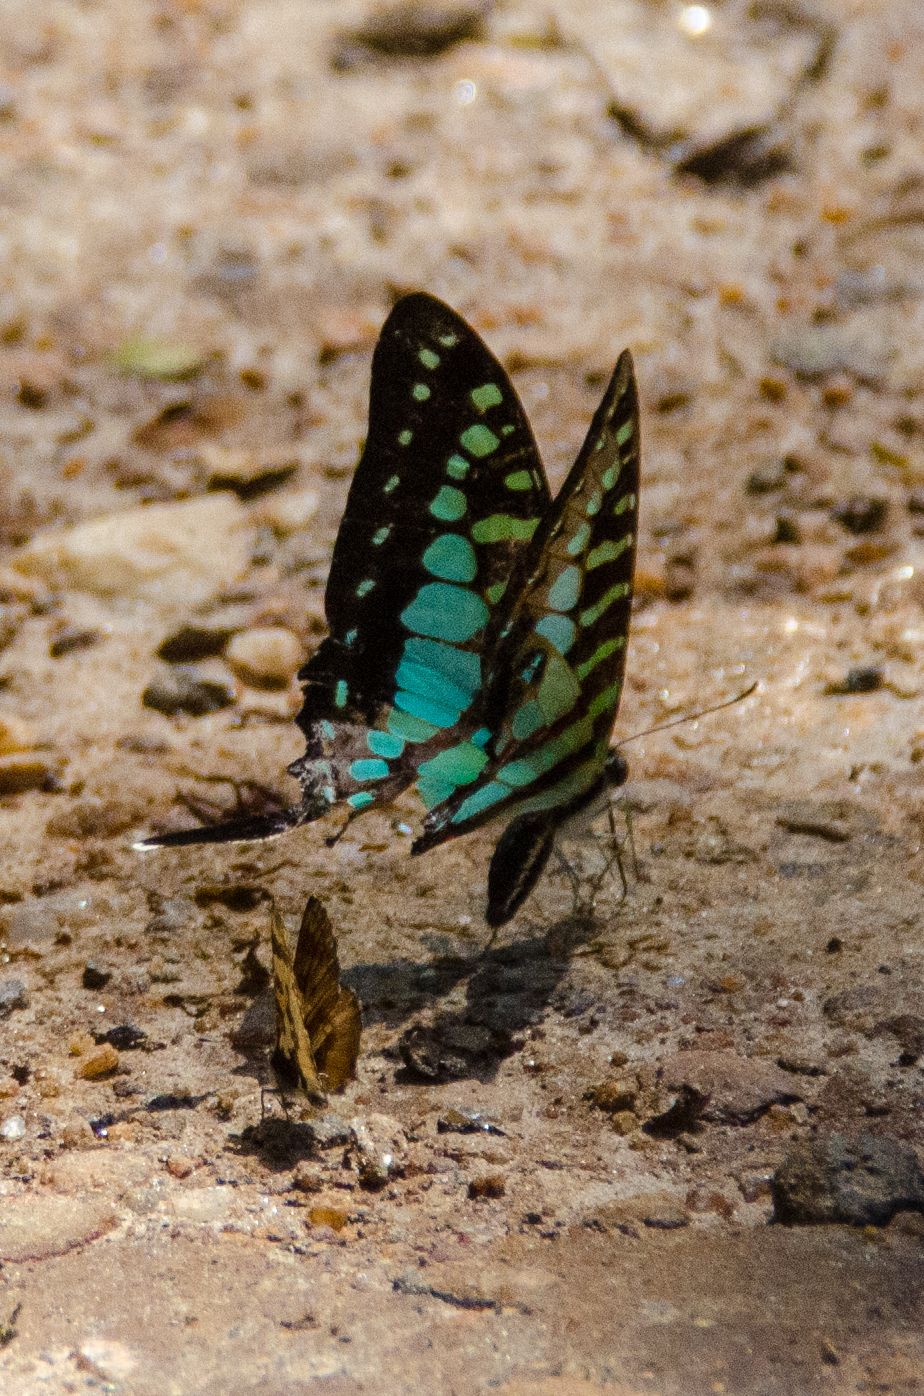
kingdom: Animalia
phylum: Arthropoda
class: Insecta
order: Lepidoptera
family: Papilionidae
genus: Graphium
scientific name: Graphium policenes
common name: Common swordtail
